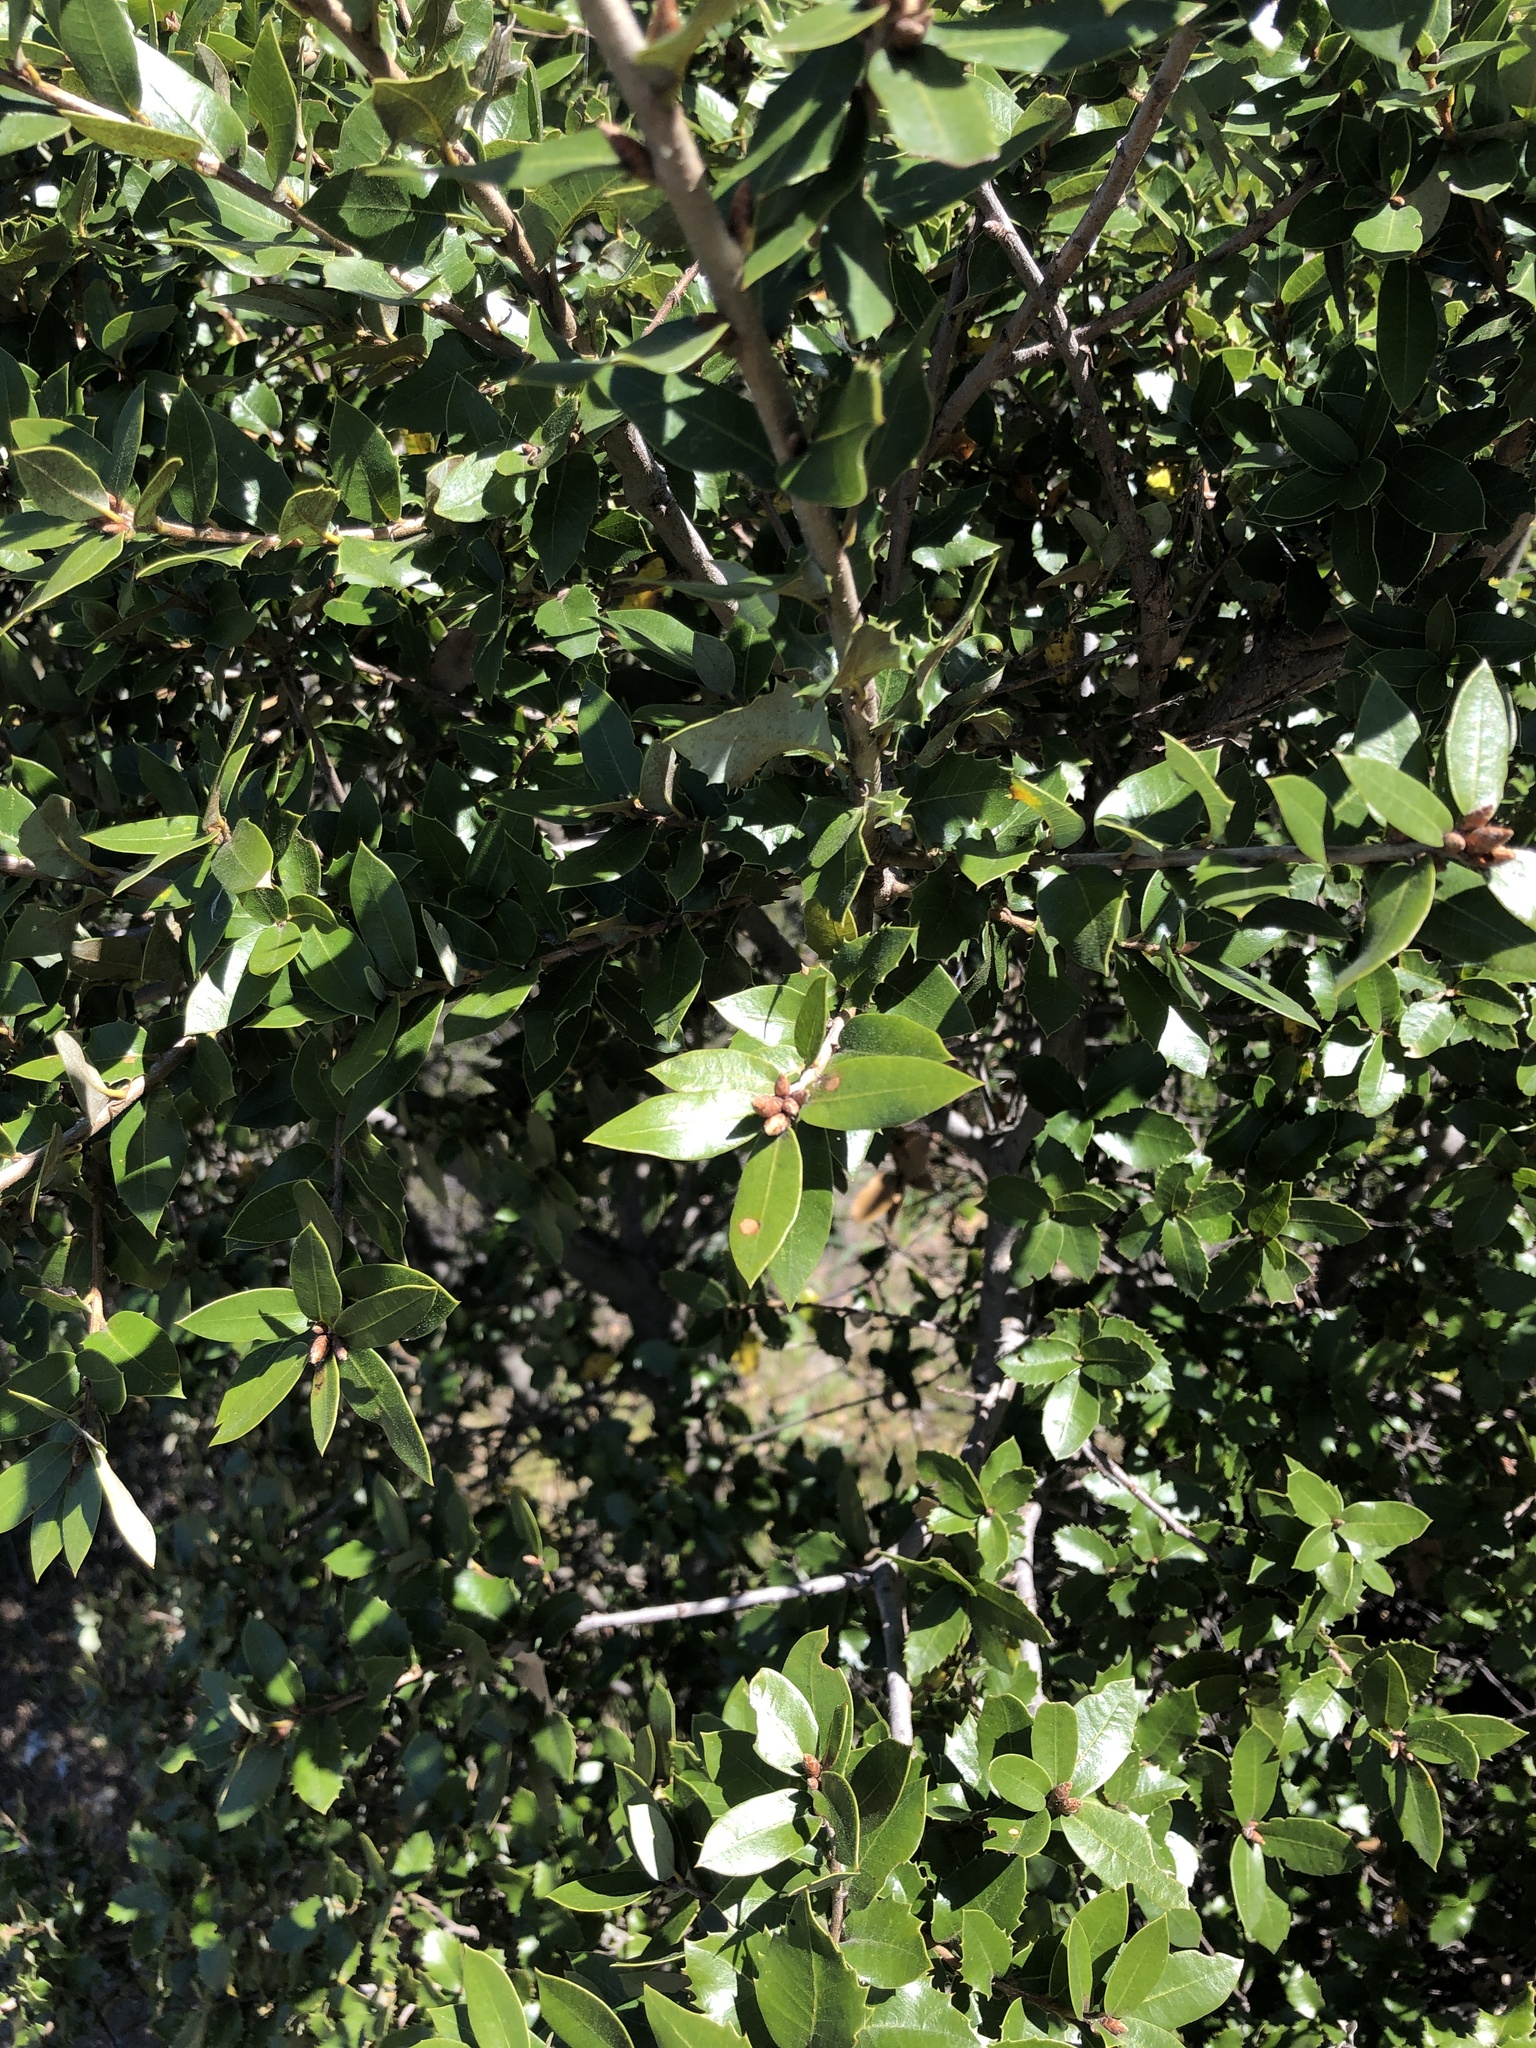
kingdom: Plantae
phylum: Tracheophyta
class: Magnoliopsida
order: Fagales
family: Fagaceae
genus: Quercus
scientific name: Quercus chrysolepis
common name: Canyon live oak
